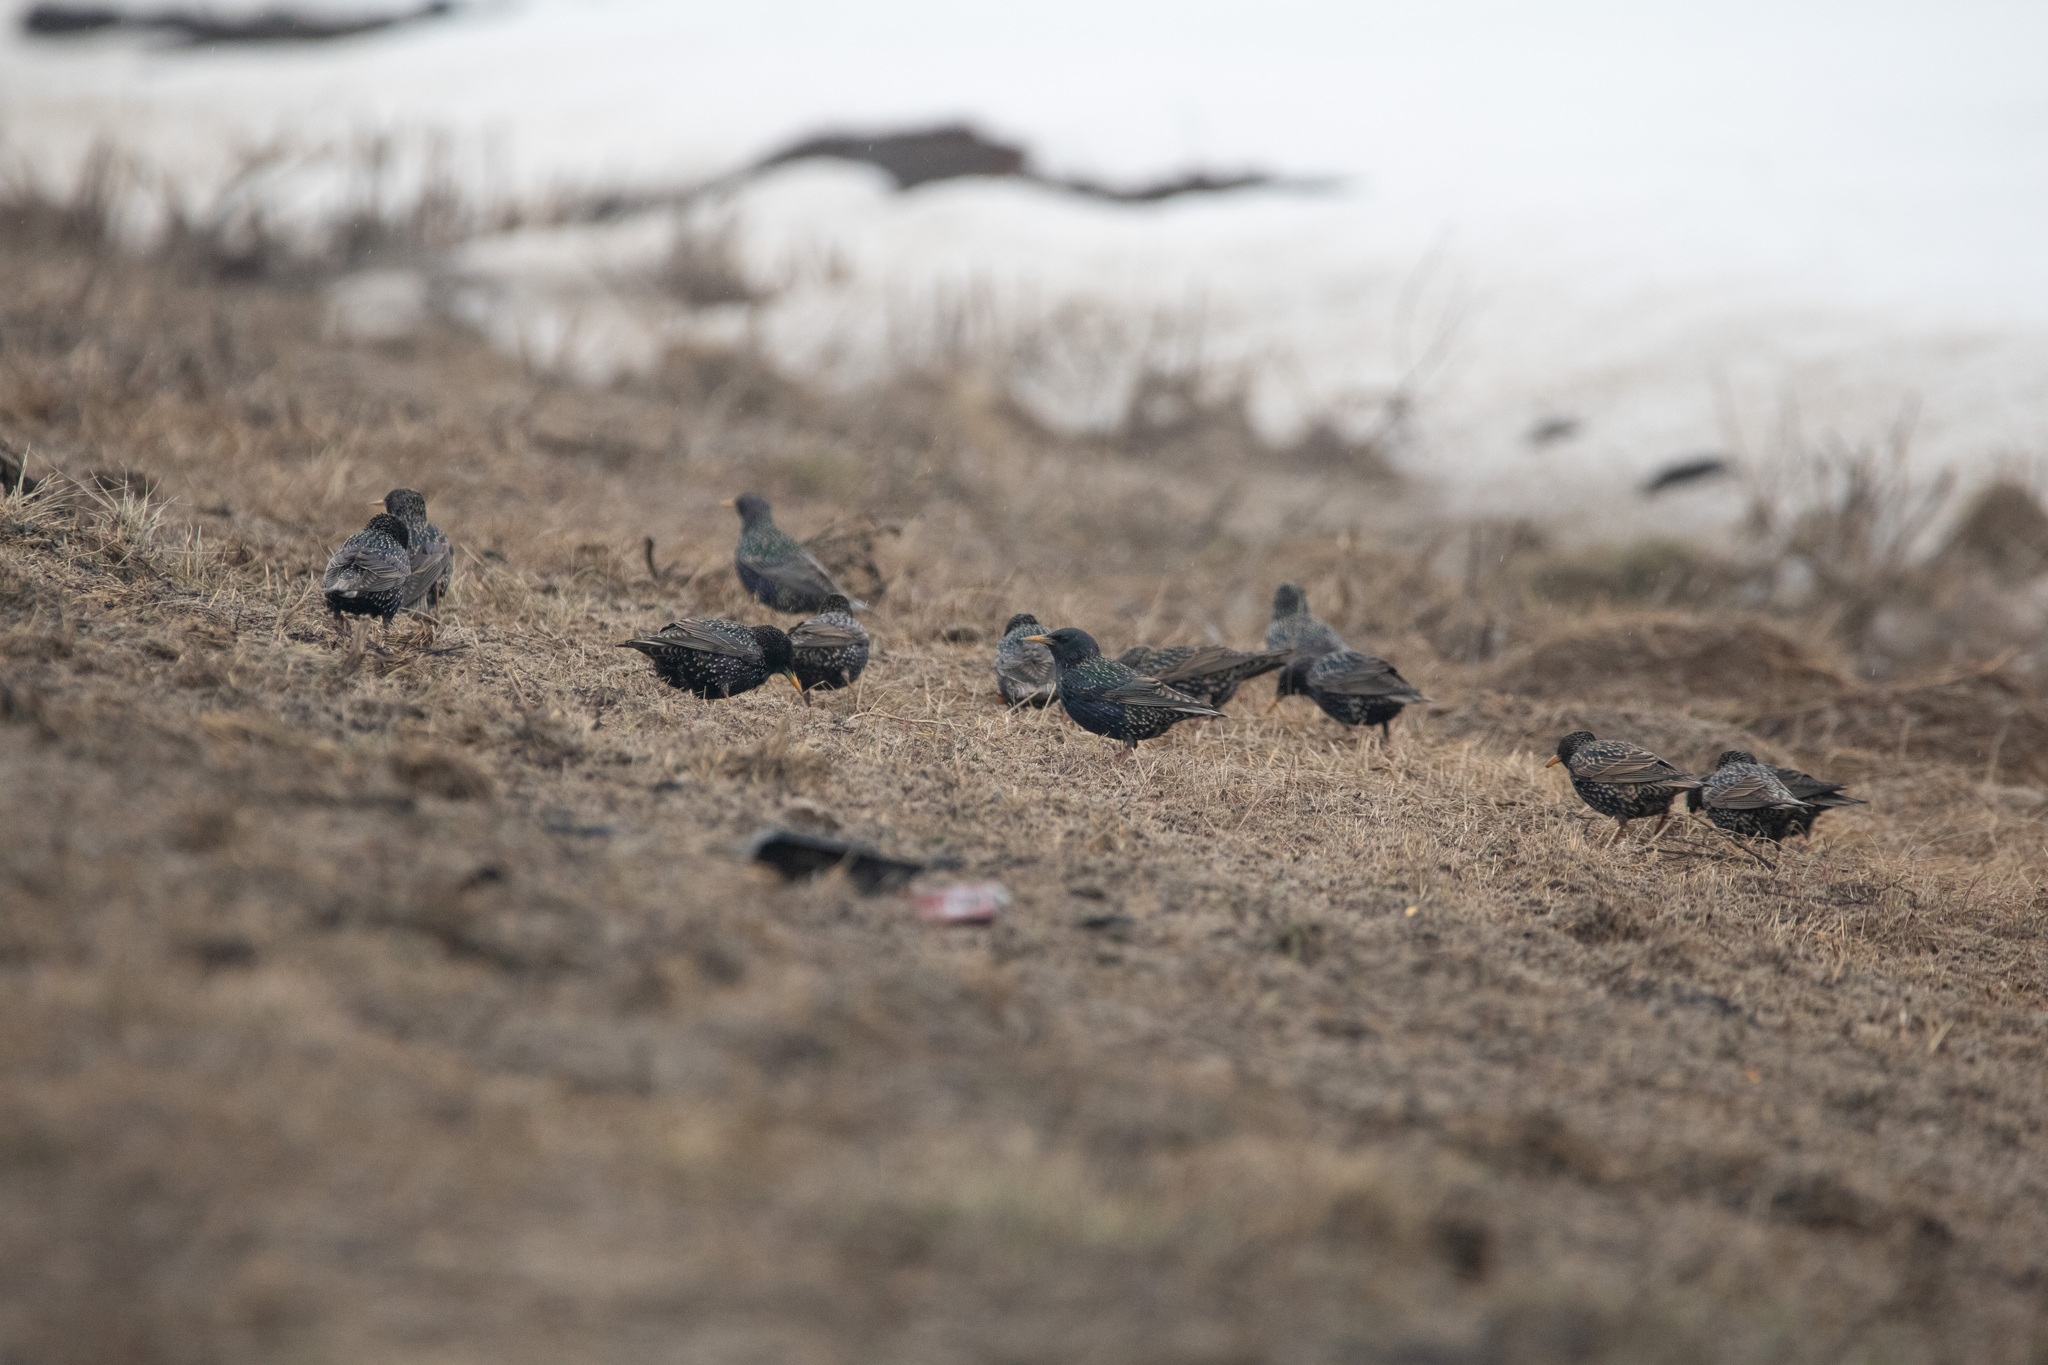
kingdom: Animalia
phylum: Chordata
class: Aves
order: Passeriformes
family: Sturnidae
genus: Sturnus
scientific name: Sturnus vulgaris
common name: Common starling
